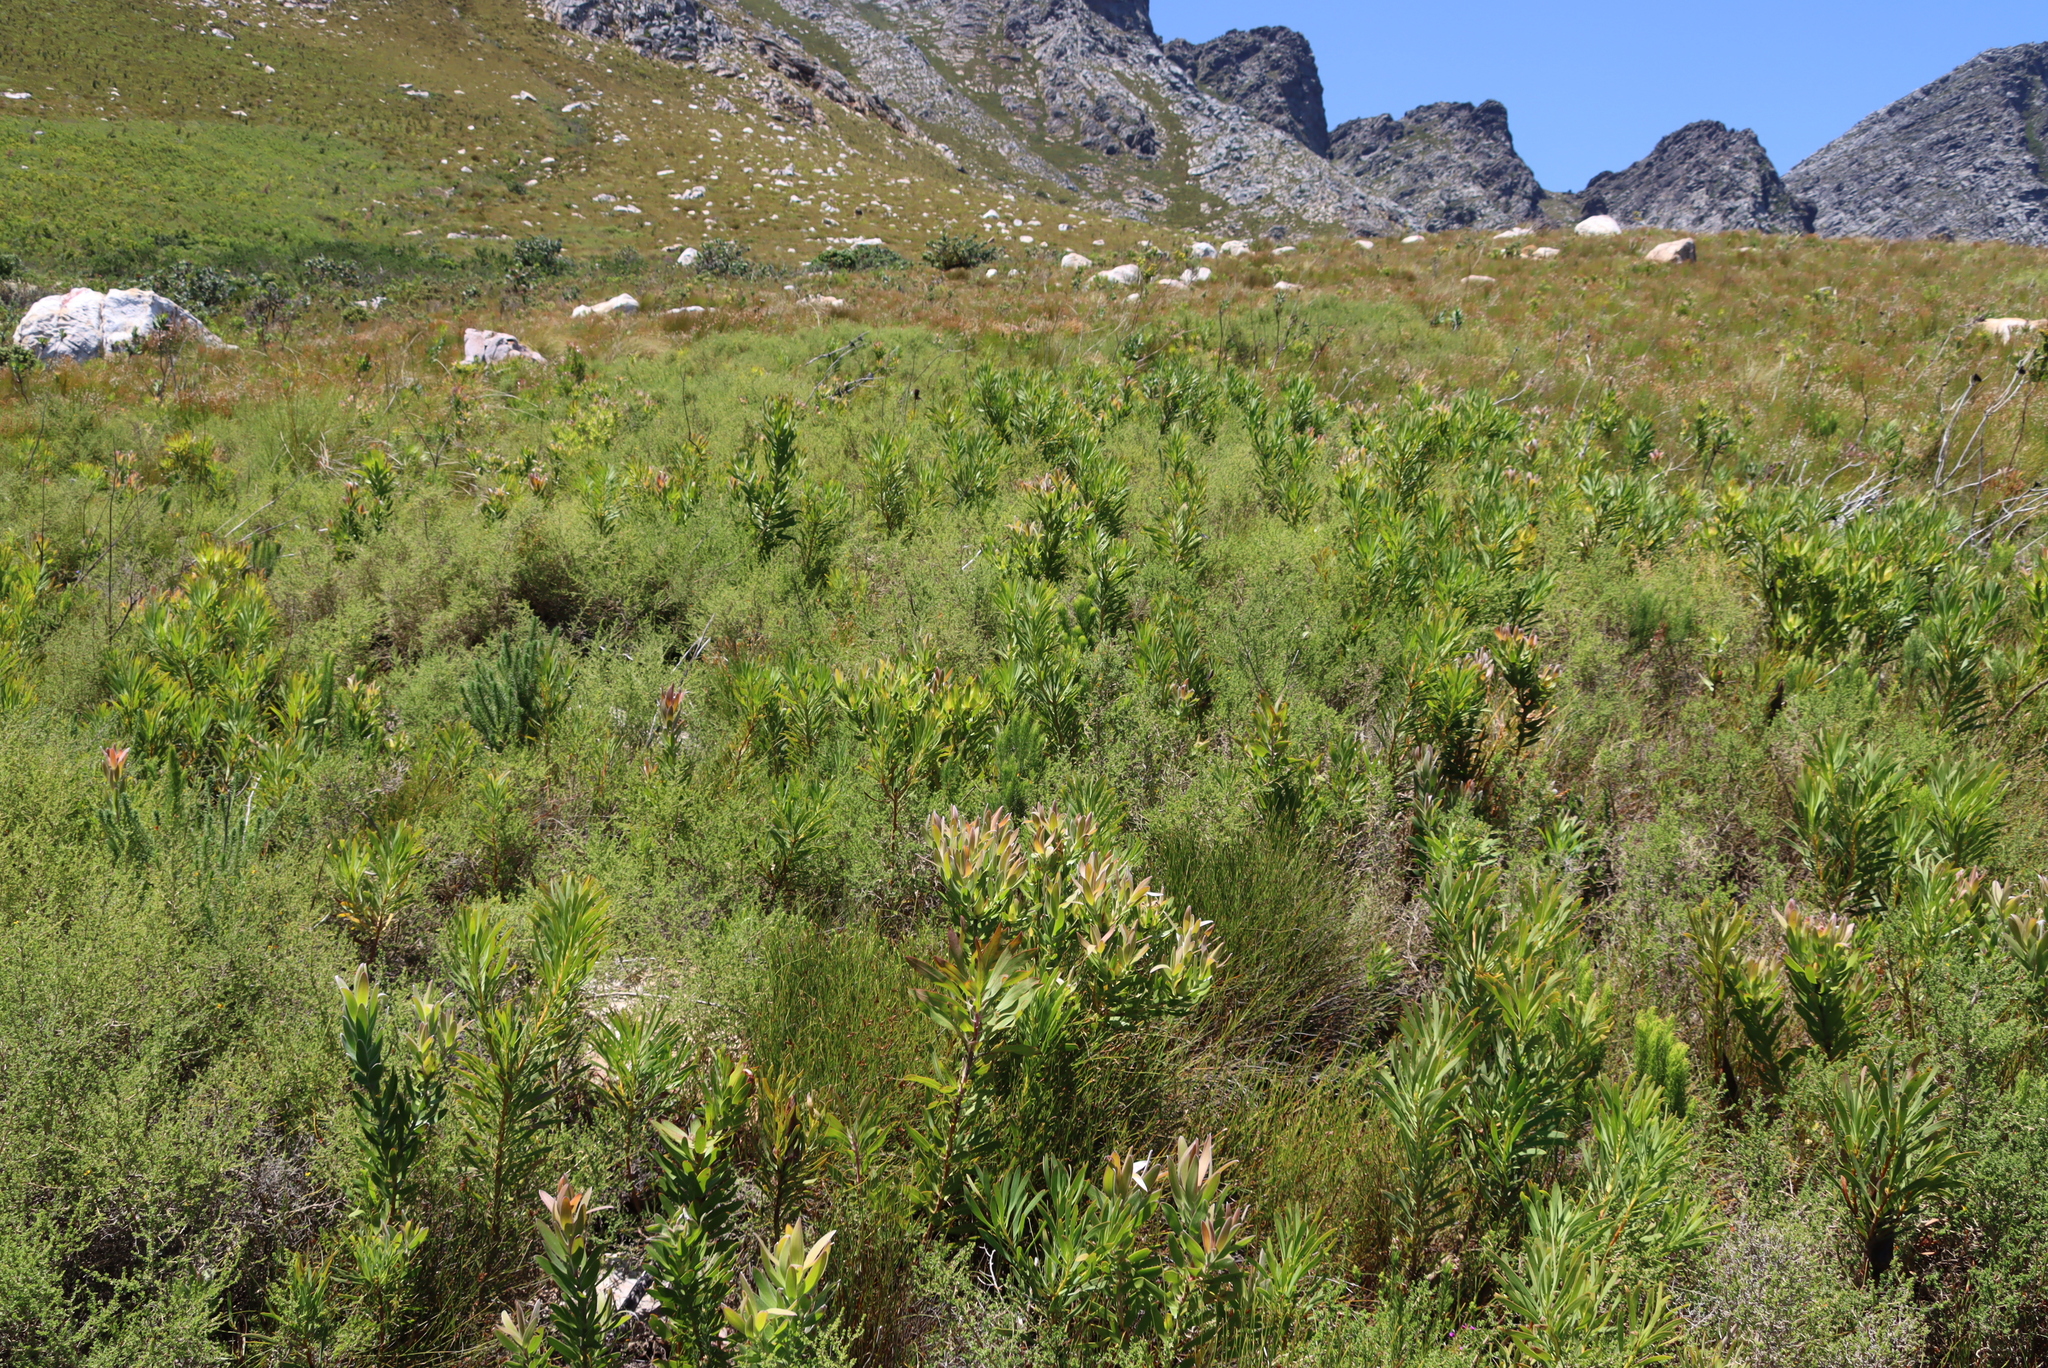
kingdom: Plantae
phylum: Tracheophyta
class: Magnoliopsida
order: Proteales
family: Proteaceae
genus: Protea
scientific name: Protea laurifolia
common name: Grey-leaf sugarbsh
